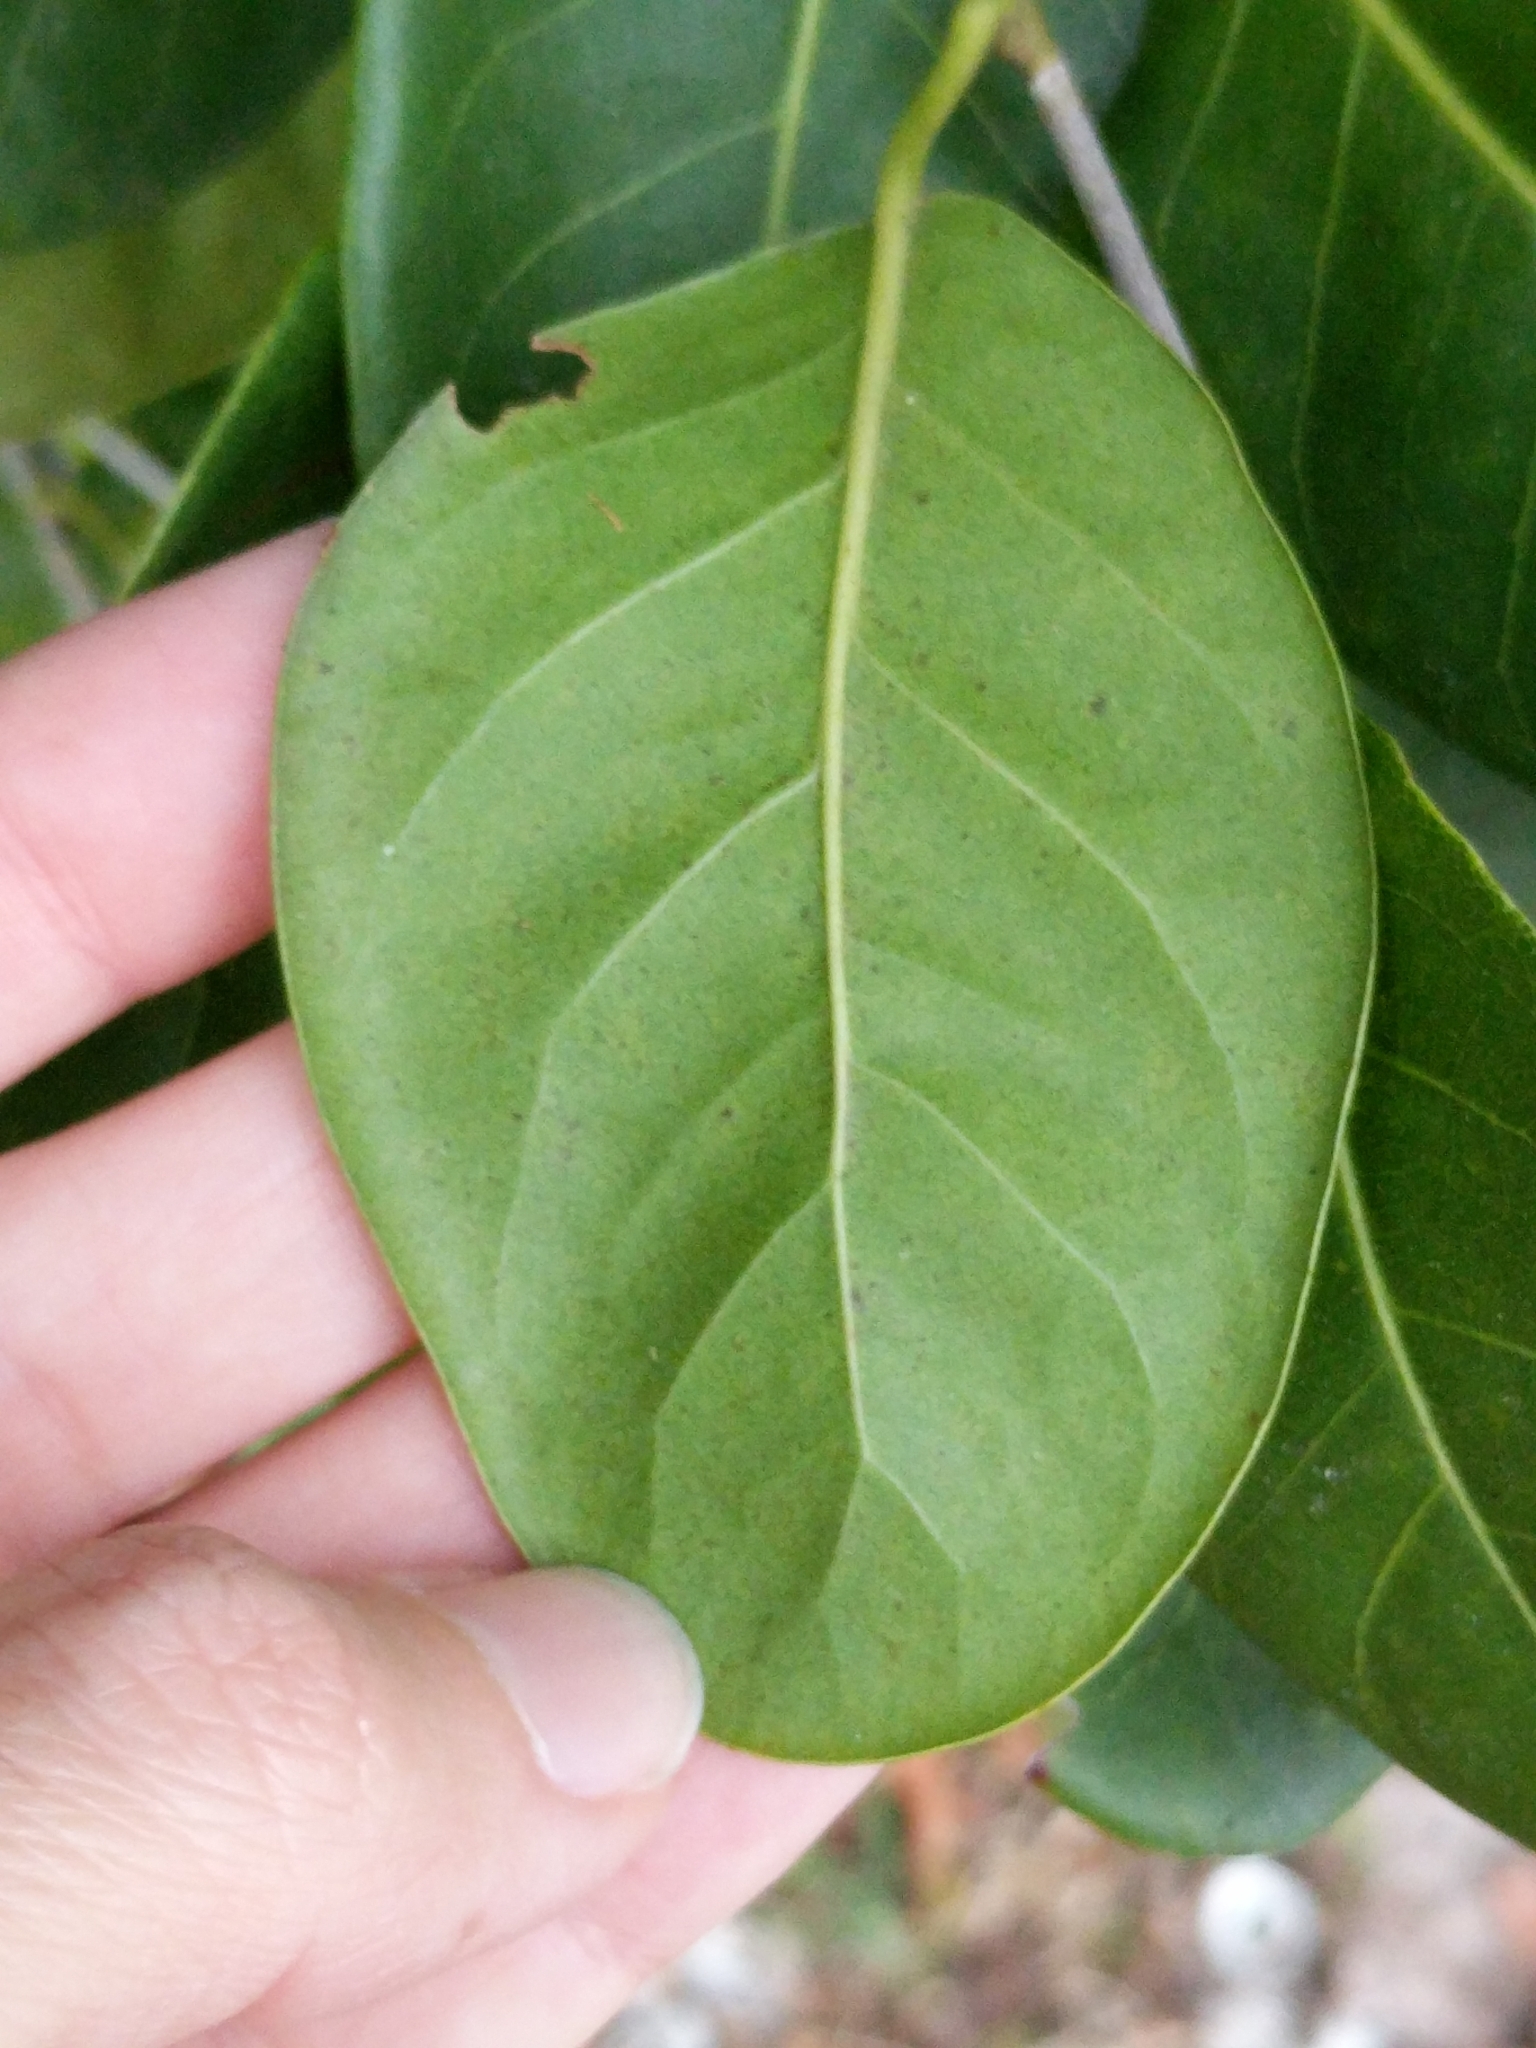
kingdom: Plantae
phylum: Tracheophyta
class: Magnoliopsida
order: Caryophyllales
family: Polygonaceae
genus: Coccoloba
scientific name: Coccoloba diversifolia
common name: Pigeon-plum
